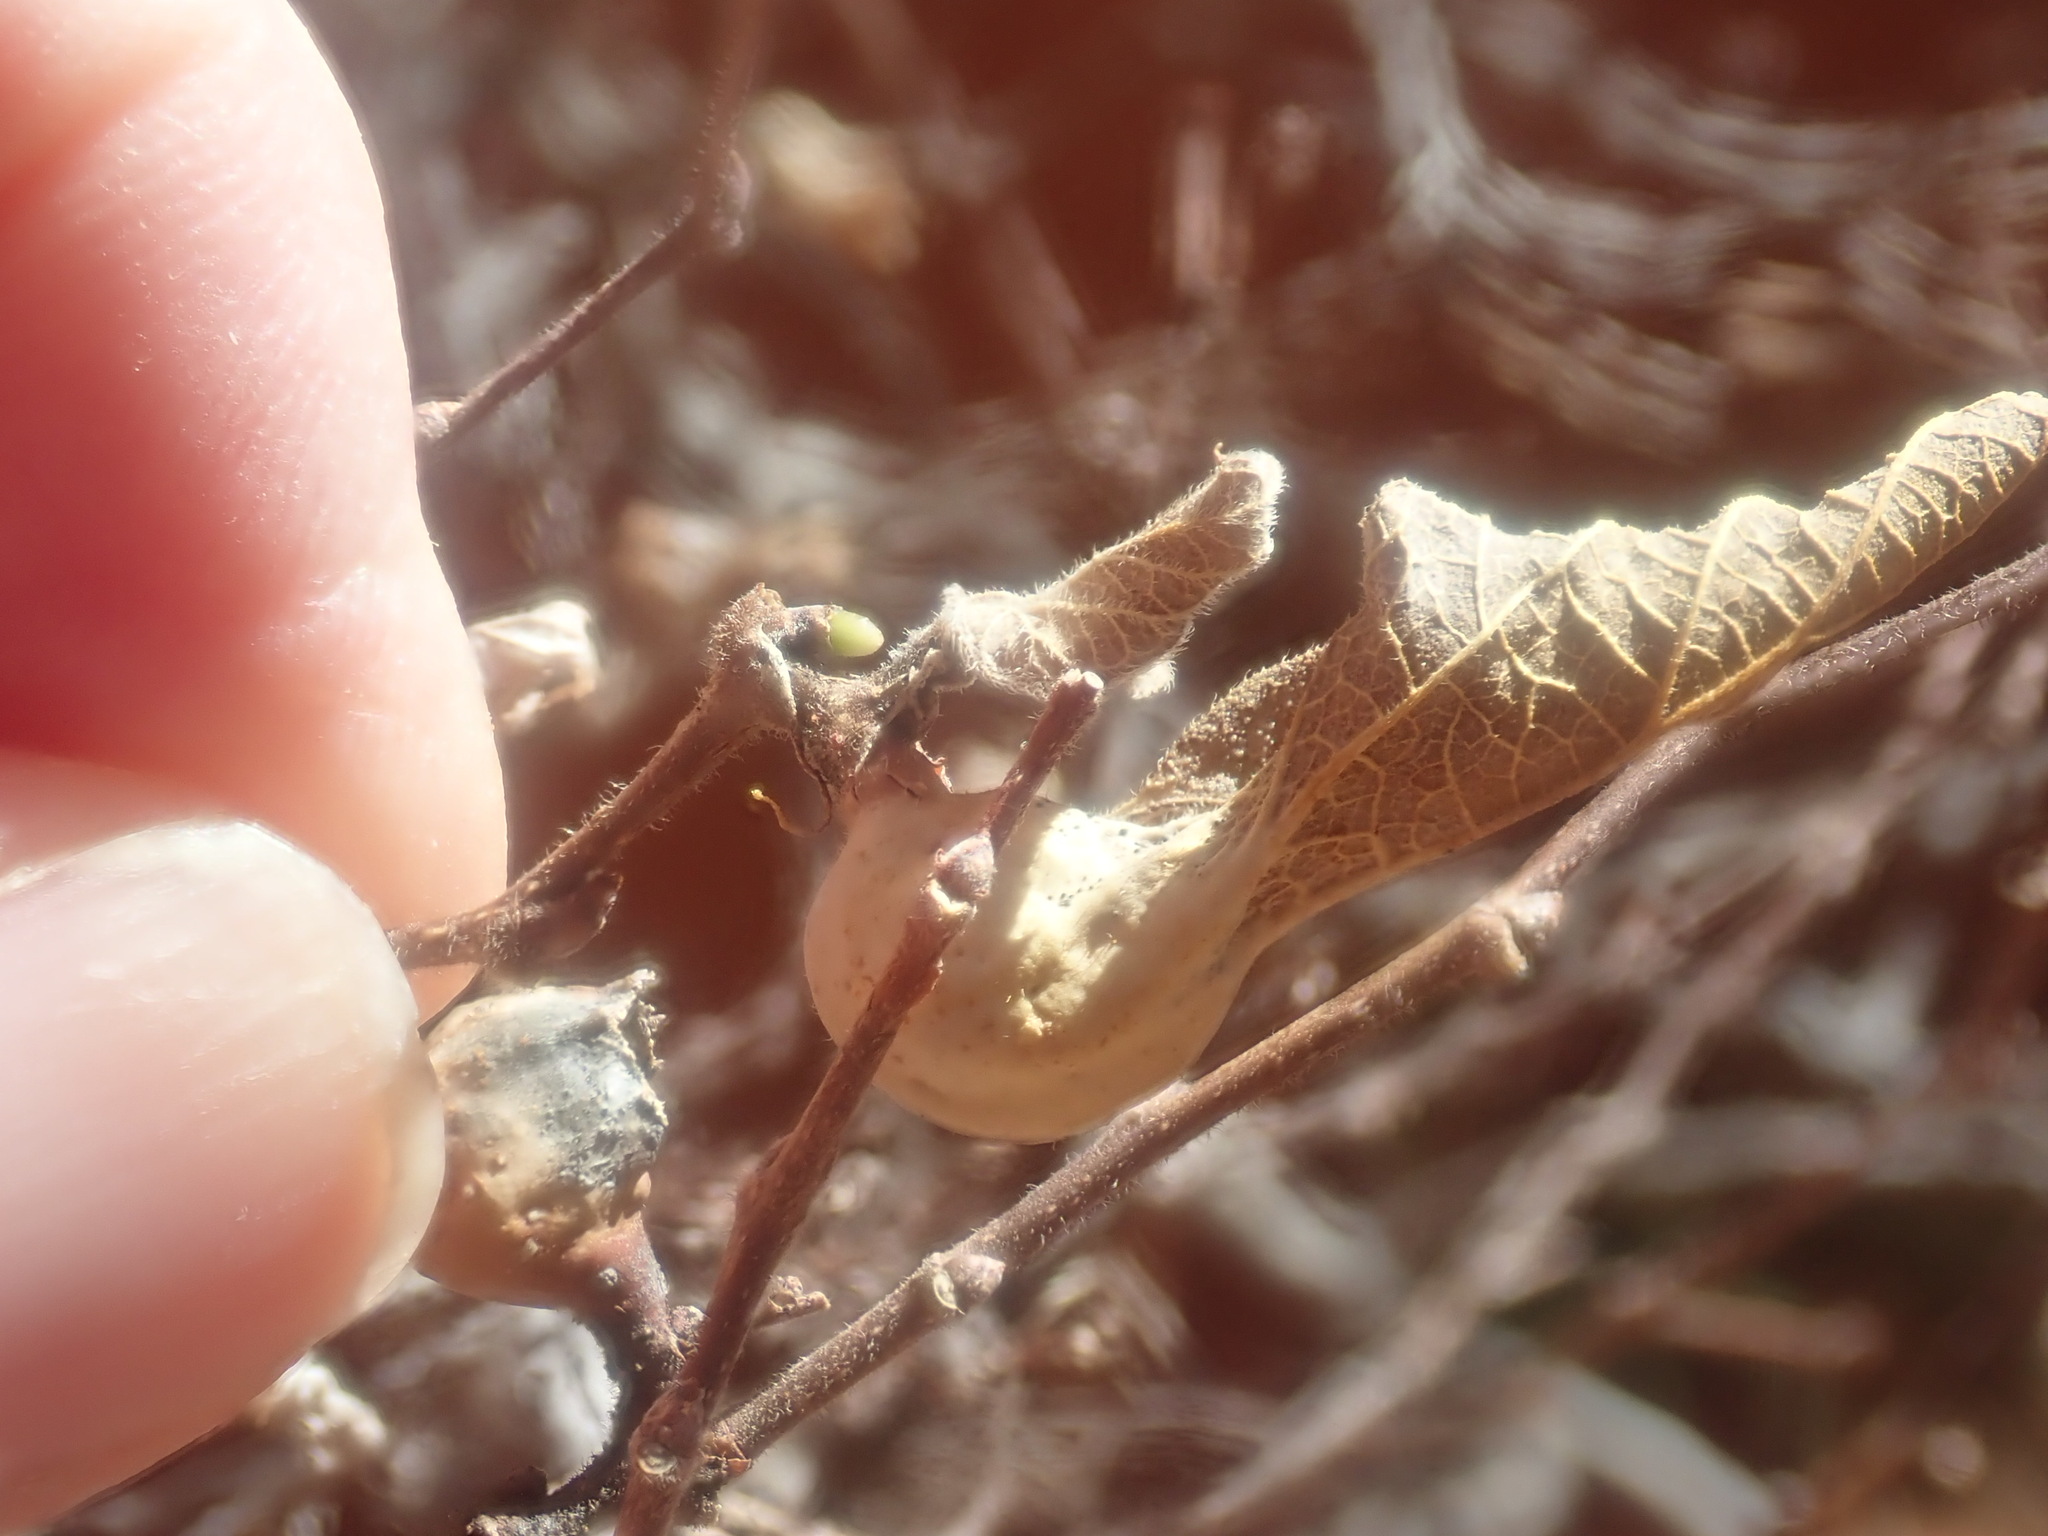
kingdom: Animalia
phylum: Arthropoda
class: Insecta
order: Hemiptera
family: Aphalaridae
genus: Pachypsylla
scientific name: Pachypsylla venusta
